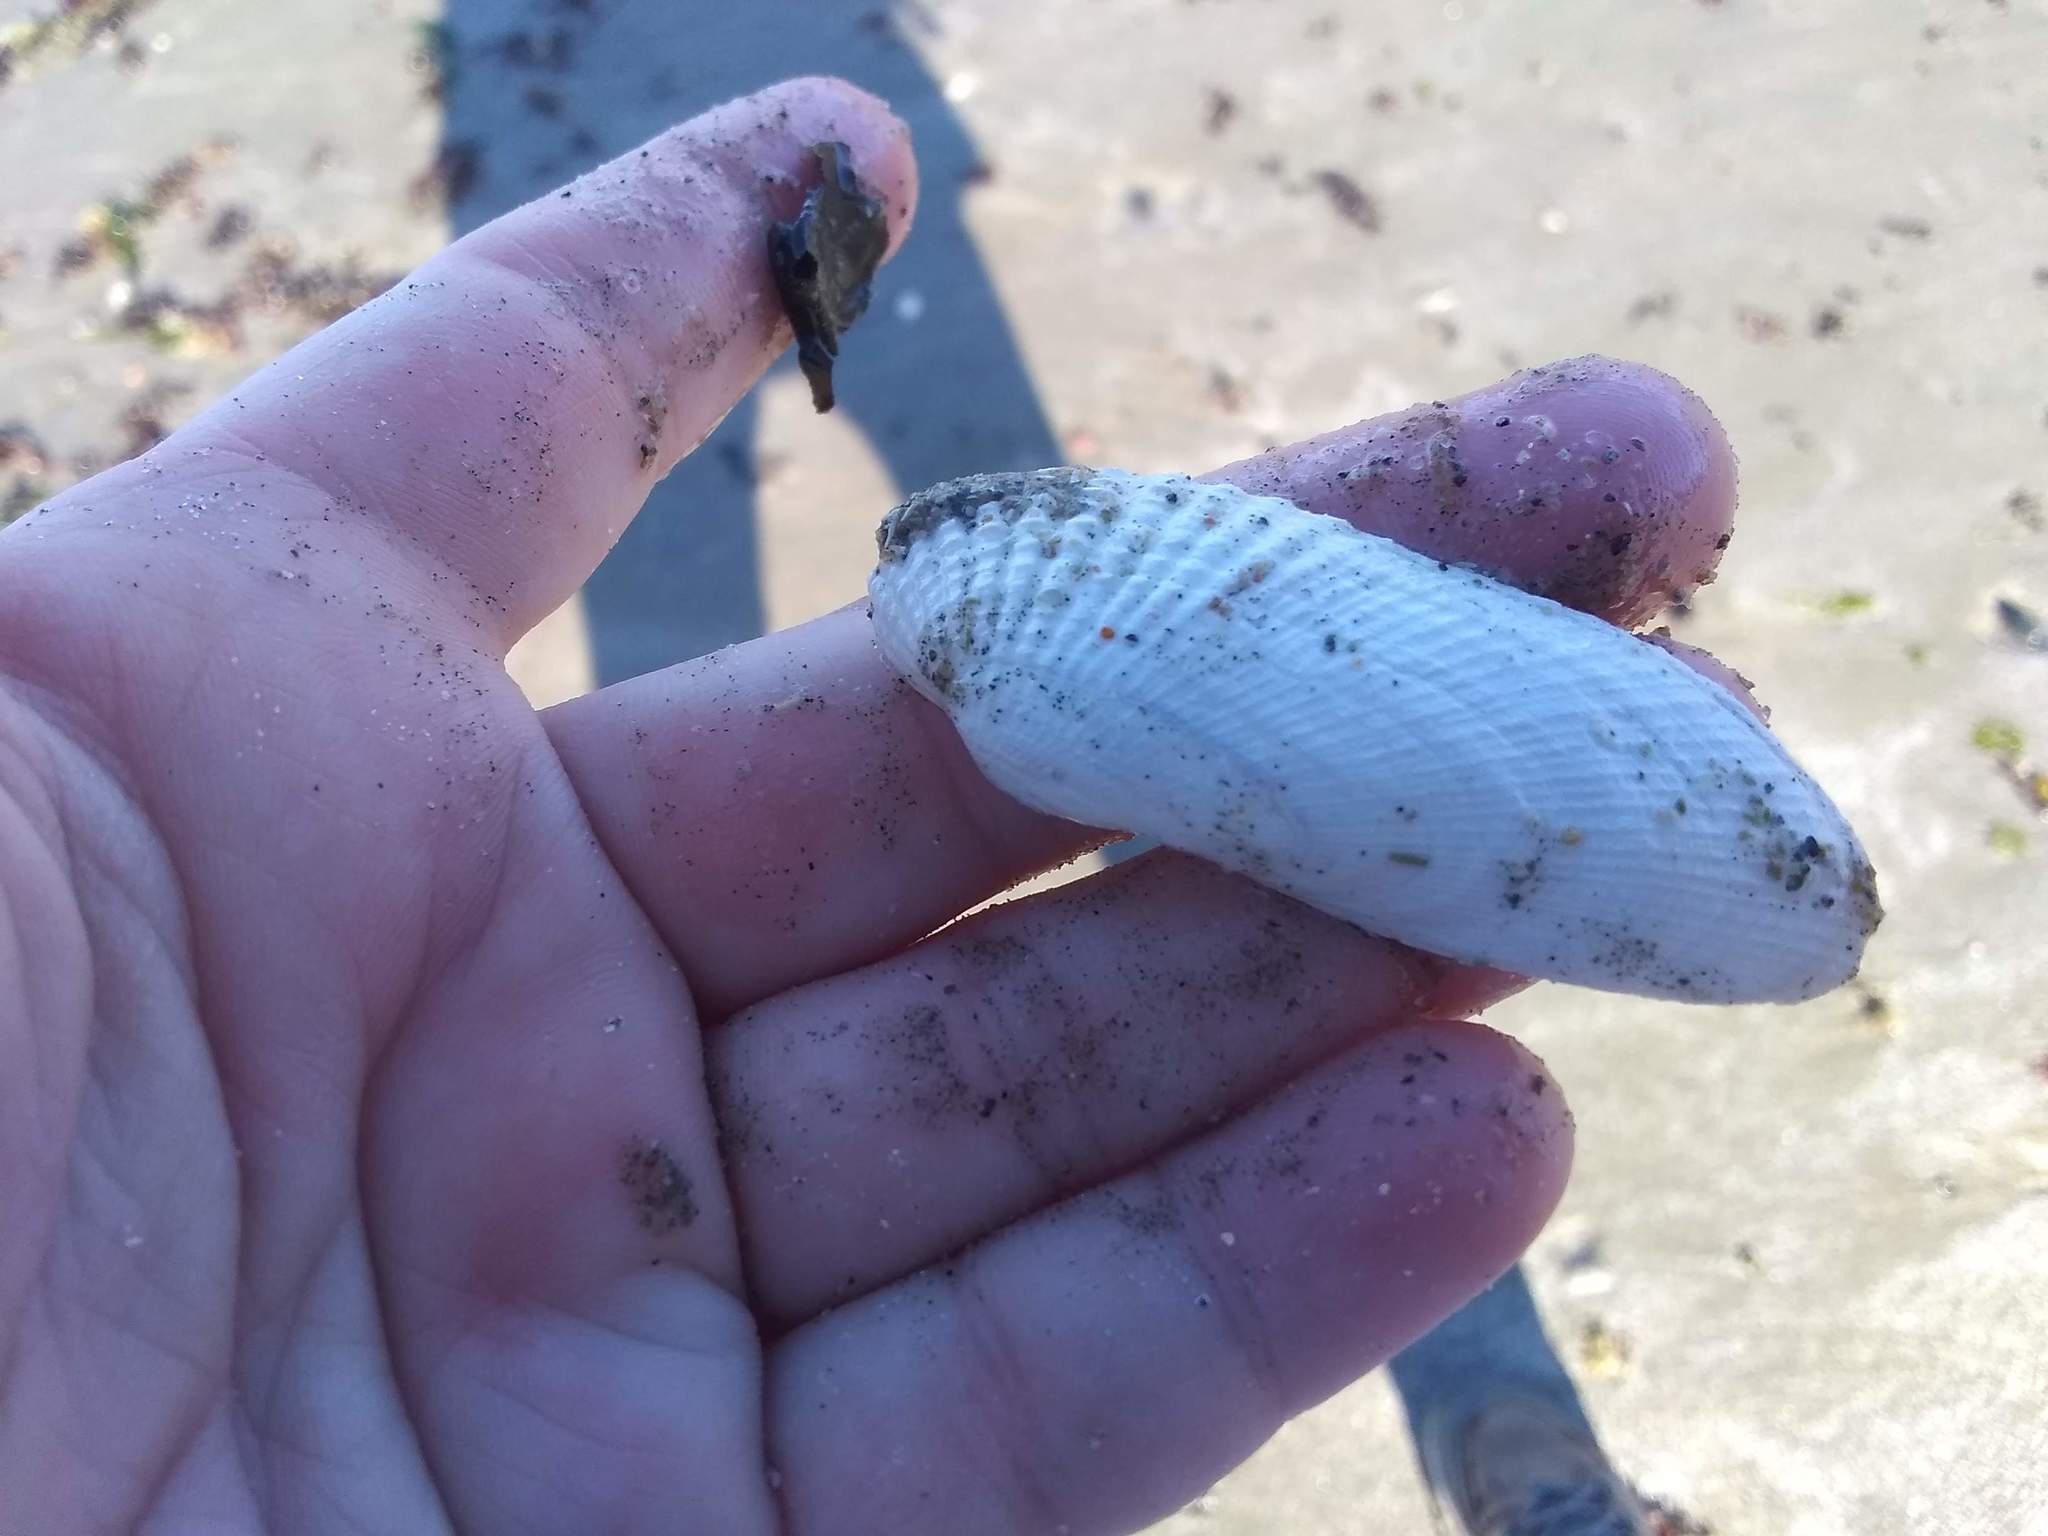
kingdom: Animalia
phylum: Mollusca
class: Bivalvia
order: Venerida
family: Veneridae
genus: Petricolaria
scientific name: Petricolaria pholadiformis
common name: American piddock
